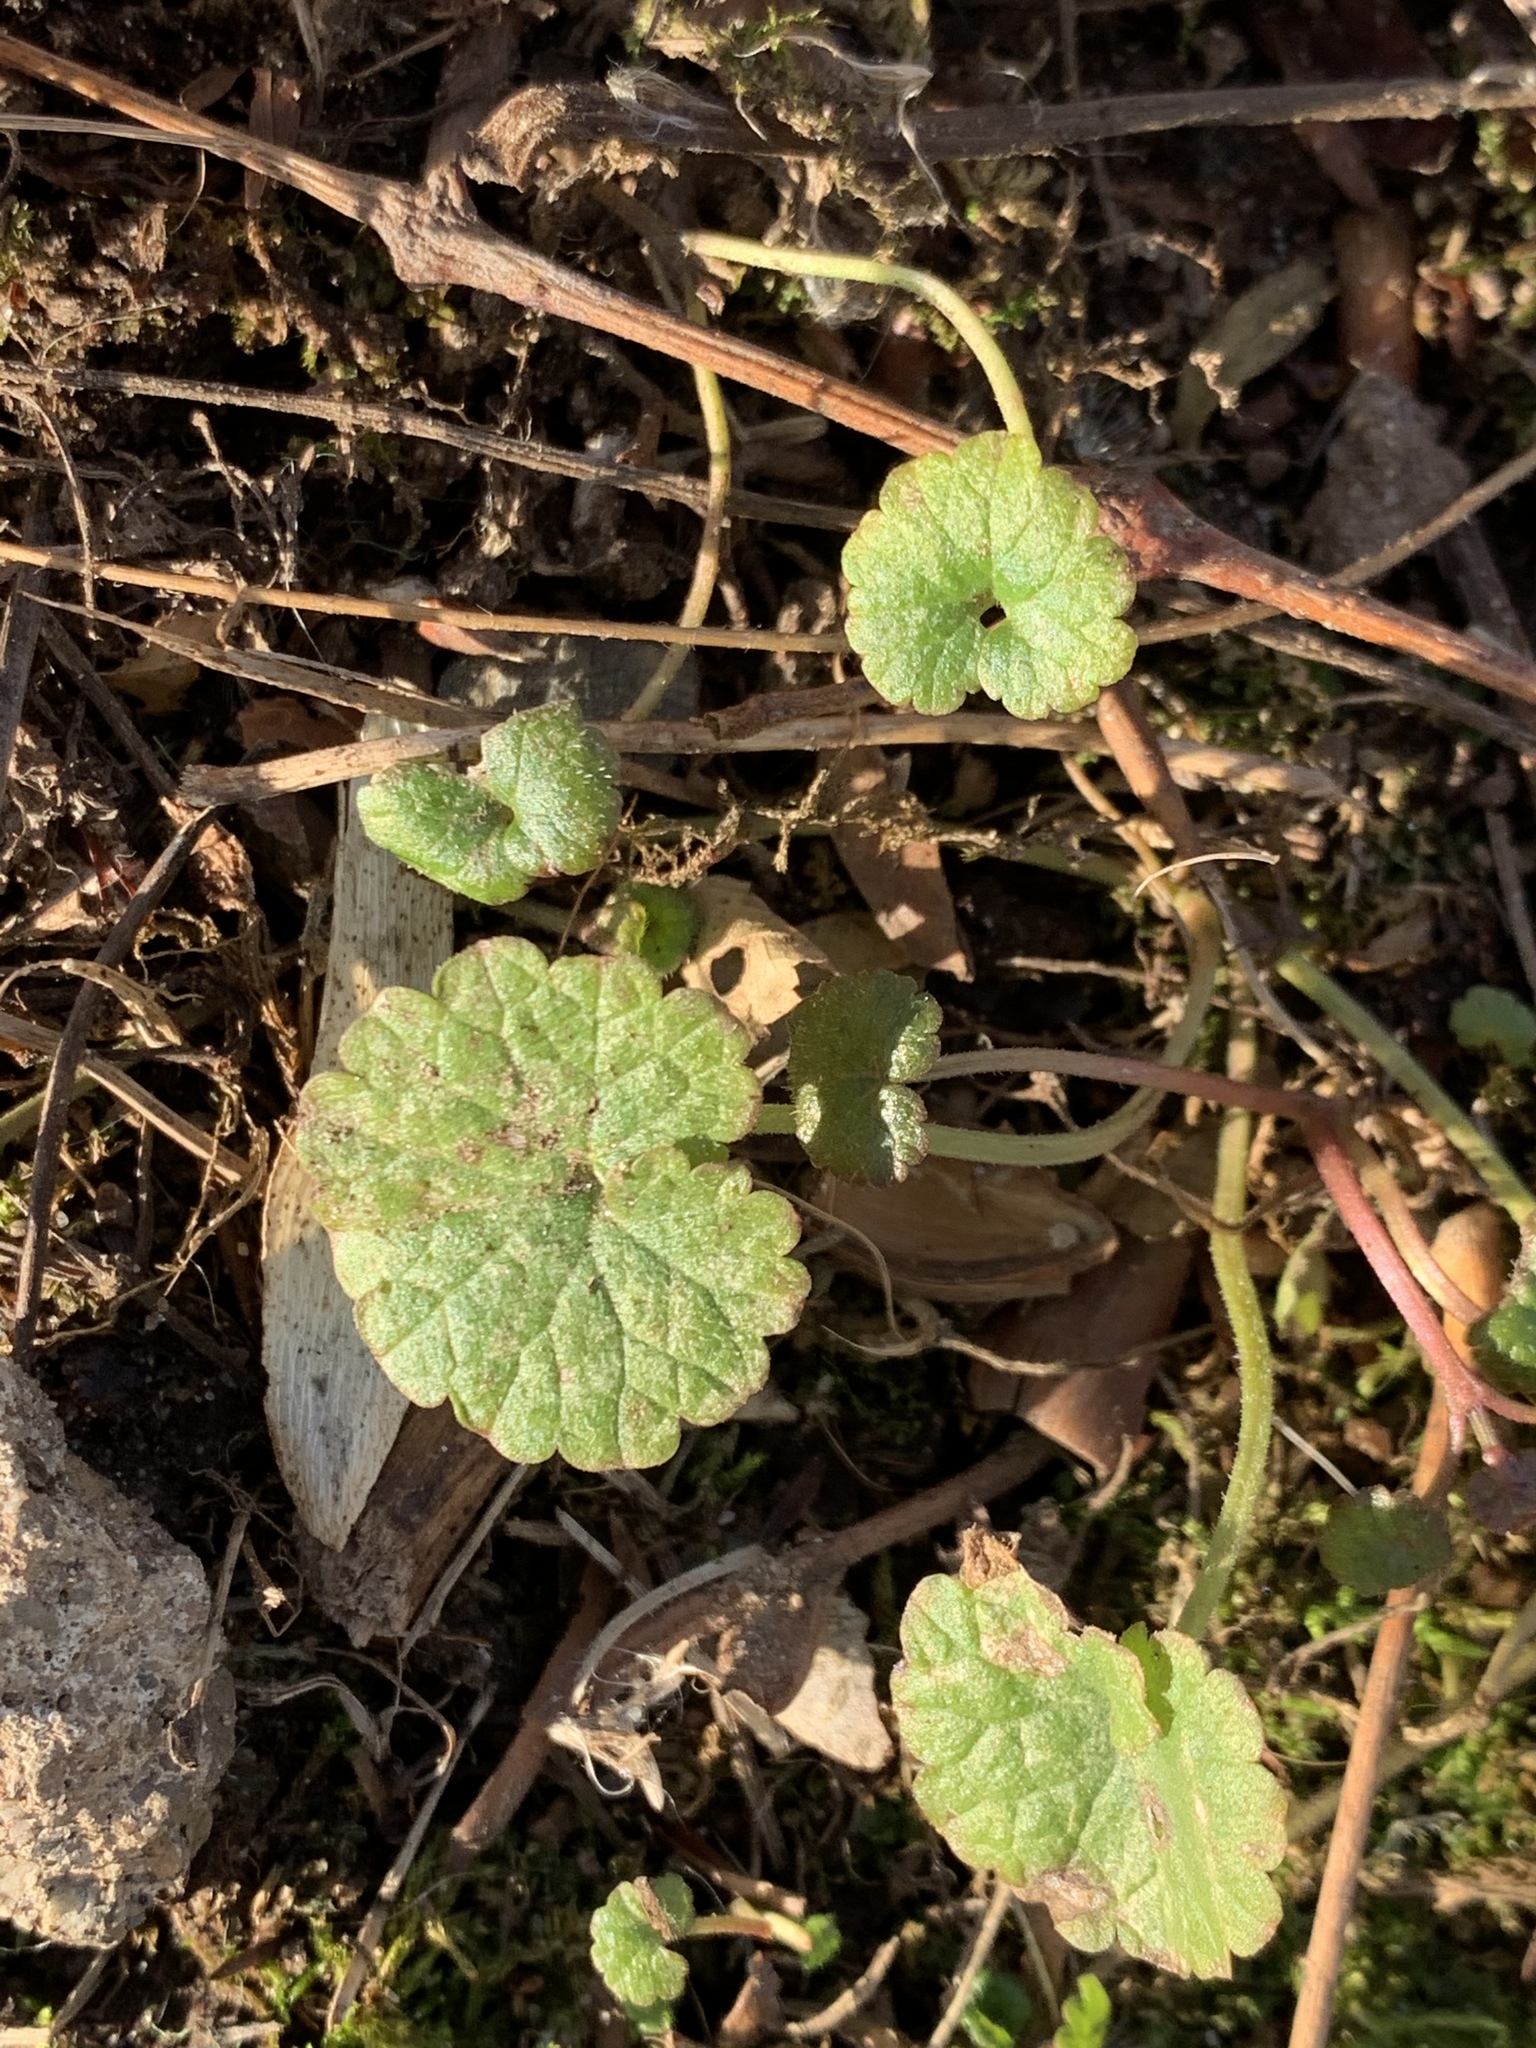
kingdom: Plantae
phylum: Tracheophyta
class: Magnoliopsida
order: Lamiales
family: Lamiaceae
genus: Glechoma
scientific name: Glechoma hederacea
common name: Ground ivy
